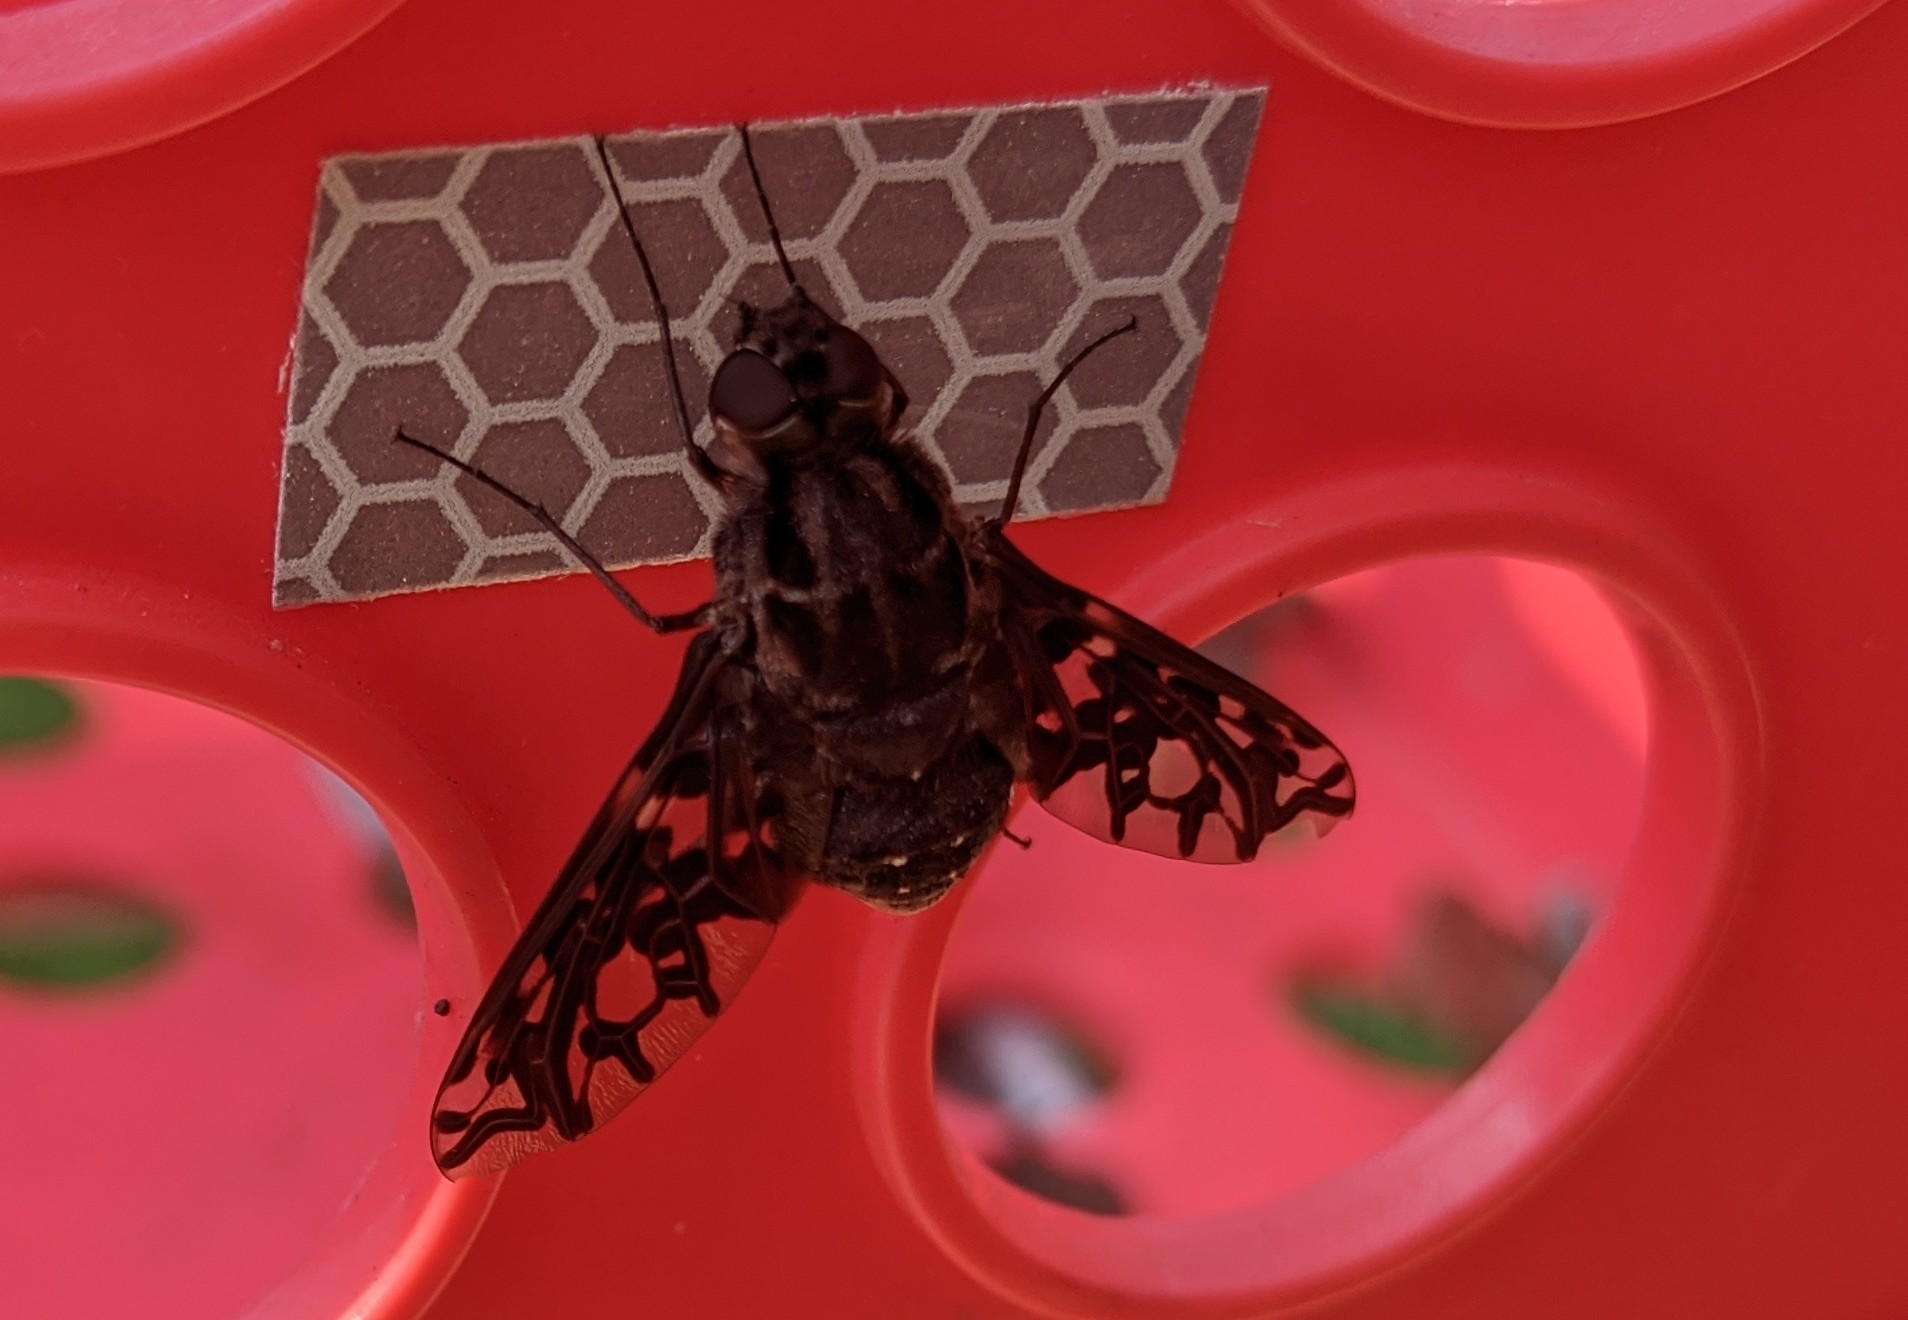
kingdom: Animalia
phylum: Arthropoda
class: Insecta
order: Diptera
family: Bombyliidae
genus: Xenox
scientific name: Xenox tigrinus
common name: Tiger bee fly
